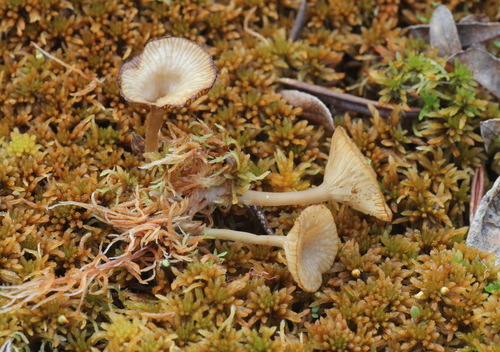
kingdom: Fungi
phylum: Basidiomycota
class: Agaricomycetes
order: Agaricales
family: Hygrophoraceae
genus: Lichenomphalia
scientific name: Lichenomphalia umbellifera
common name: Heath navel
